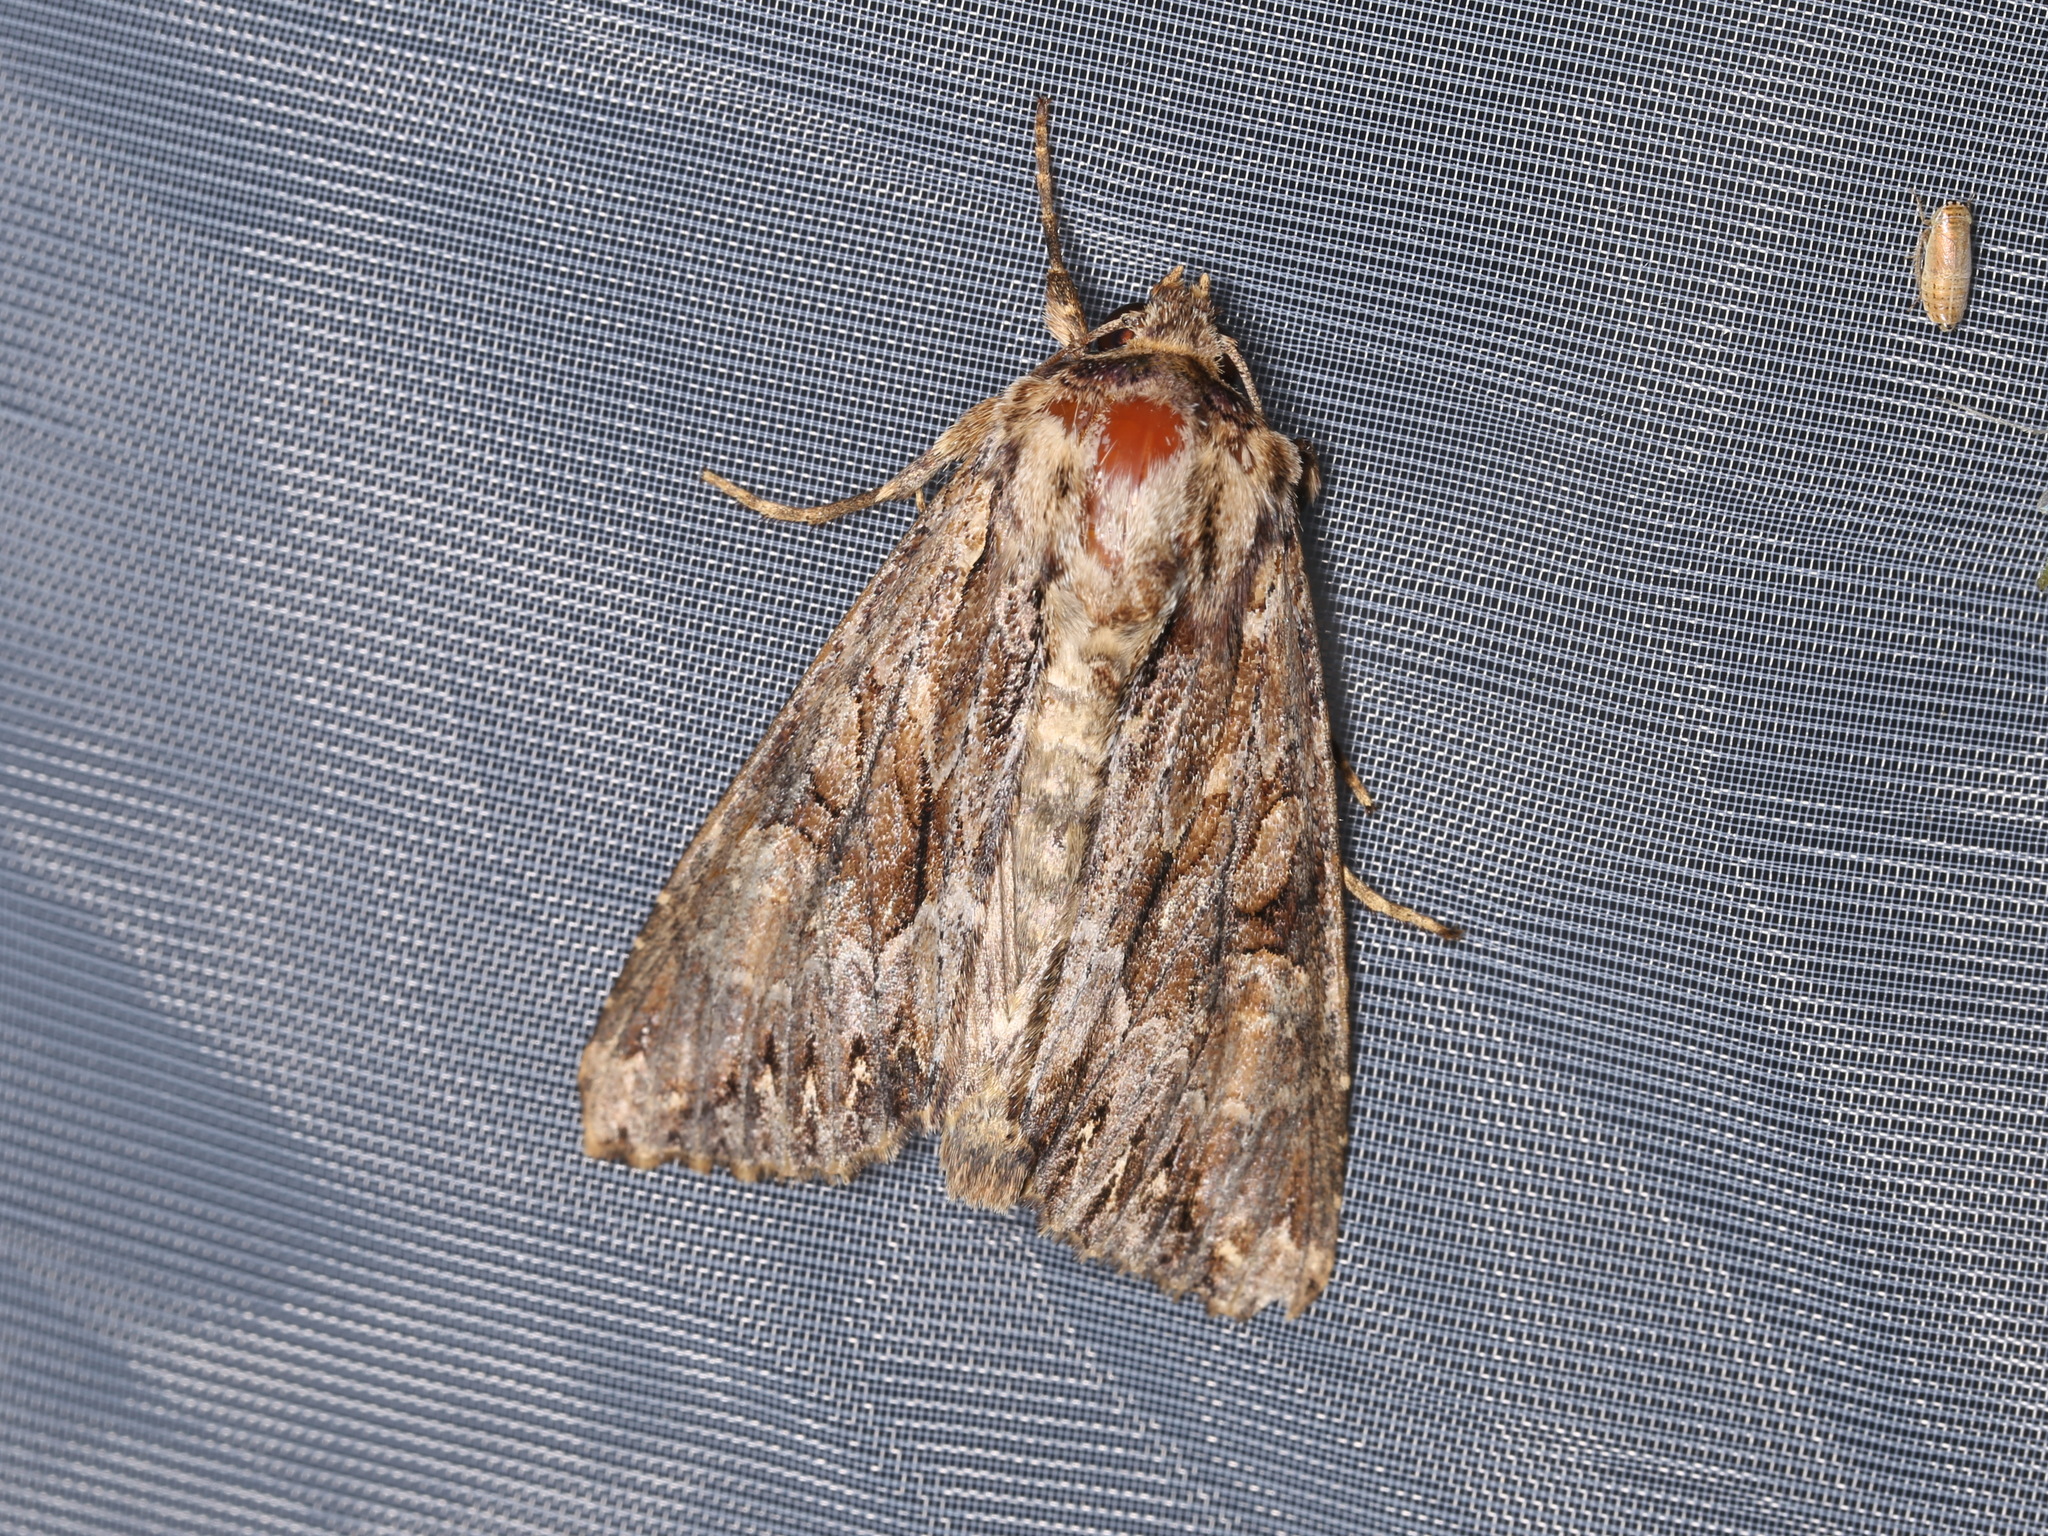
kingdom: Animalia
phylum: Arthropoda
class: Insecta
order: Lepidoptera
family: Noctuidae
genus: Apamea
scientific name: Apamea monoglypha
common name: Dark arches
